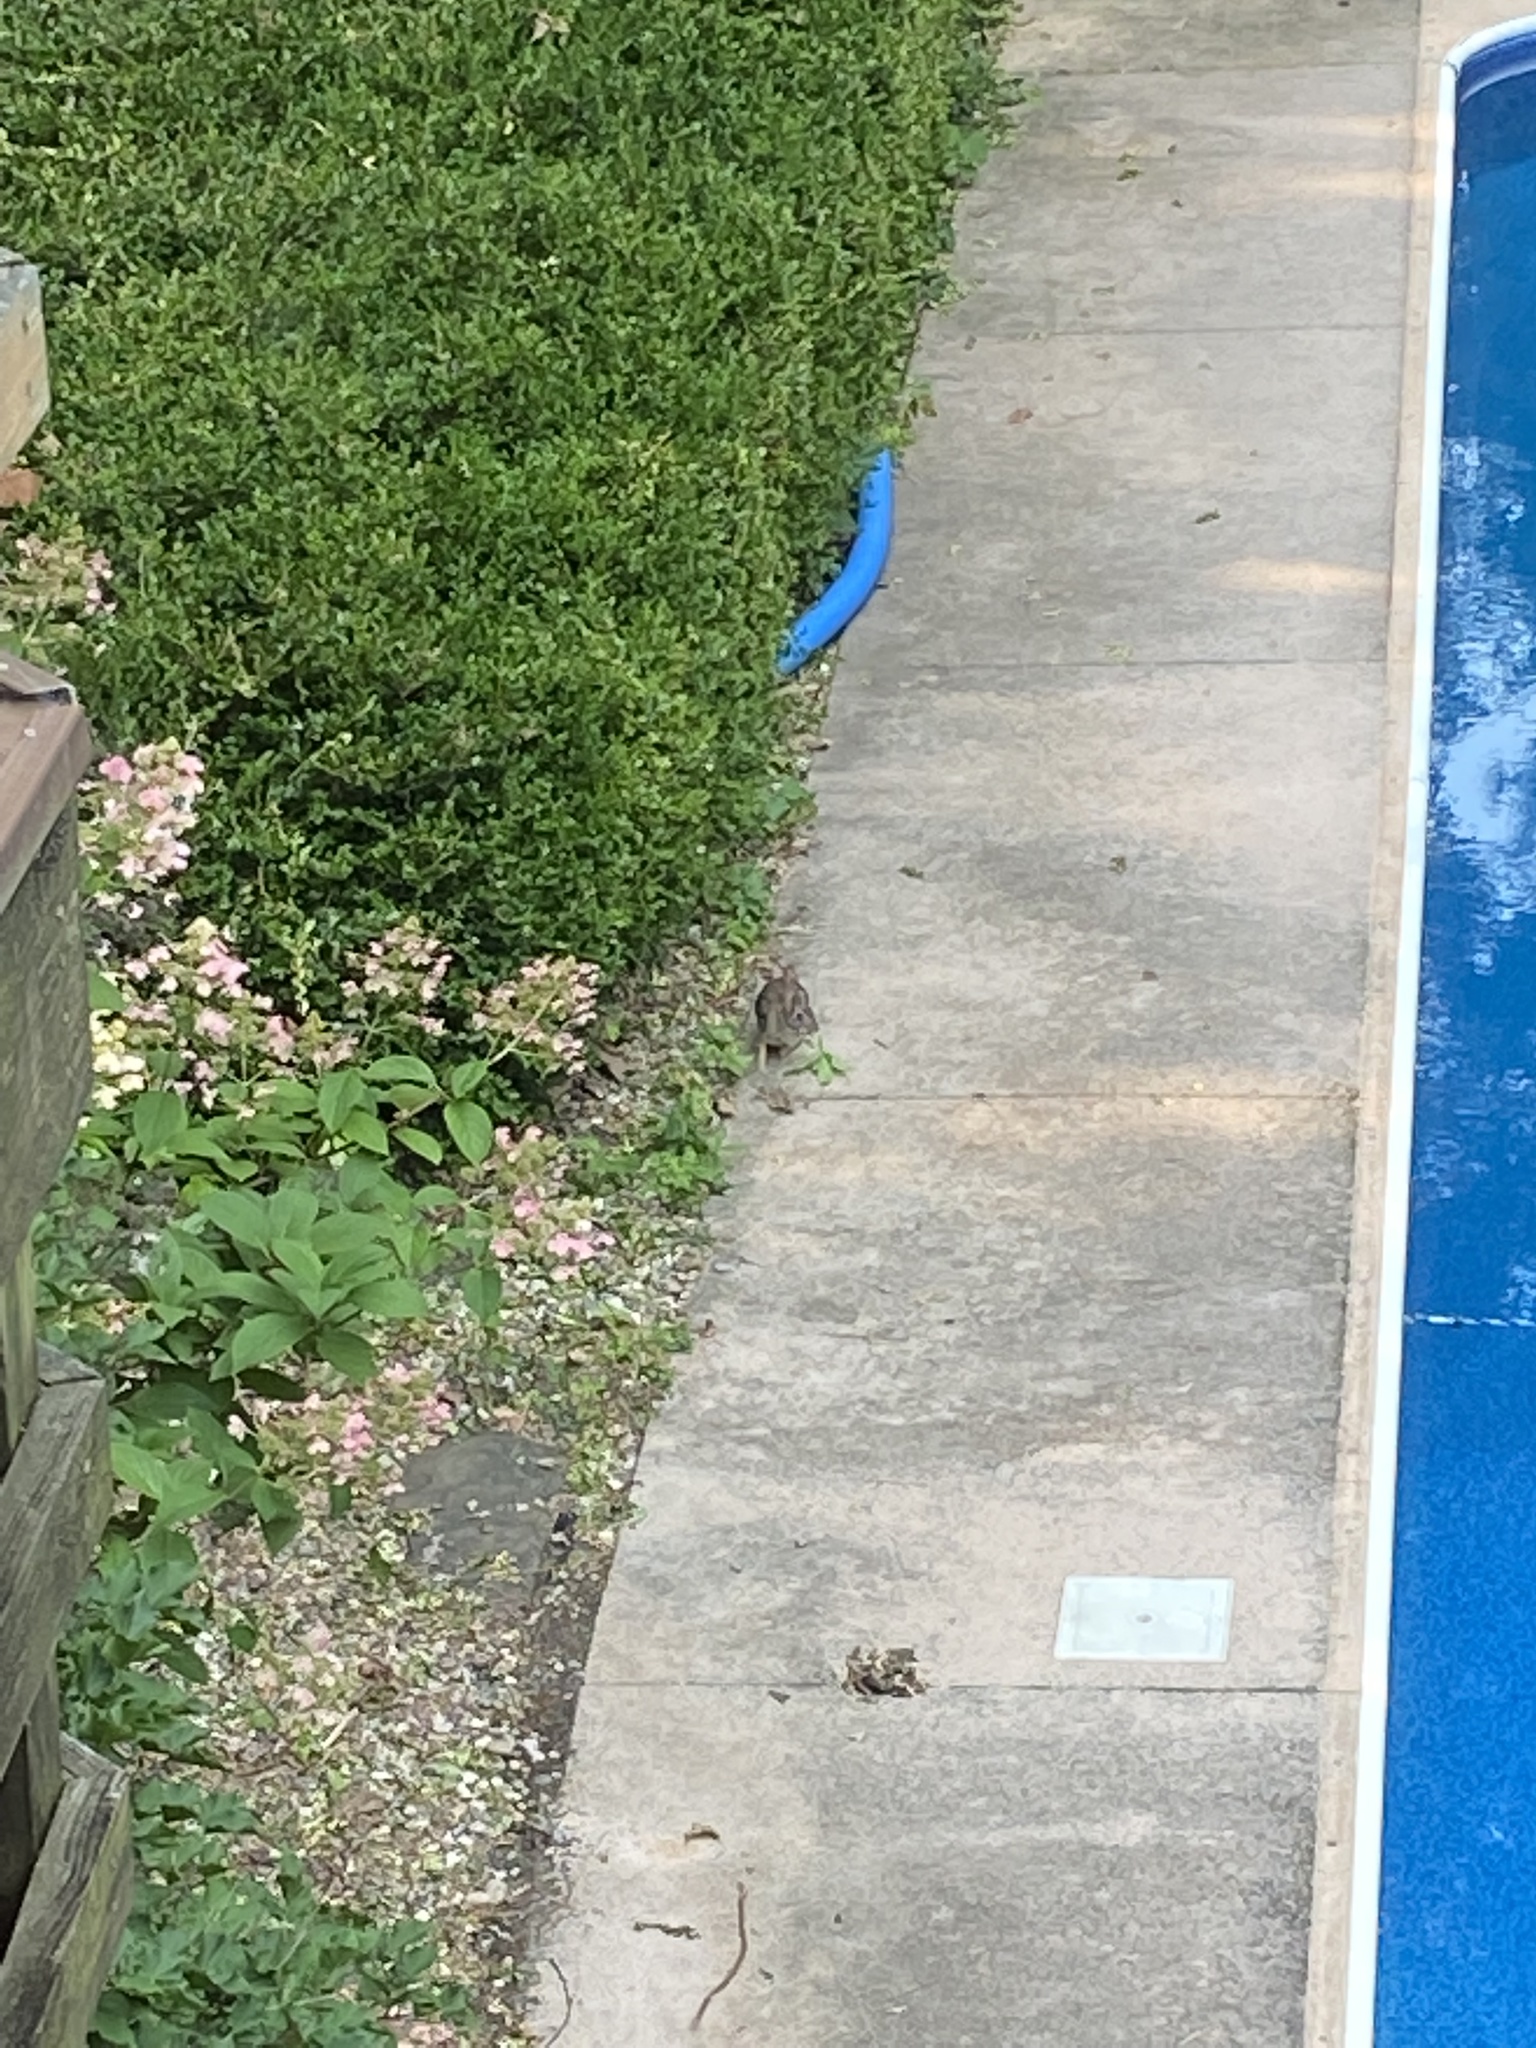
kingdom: Animalia
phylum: Chordata
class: Mammalia
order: Lagomorpha
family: Leporidae
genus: Sylvilagus
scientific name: Sylvilagus floridanus
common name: Eastern cottontail
